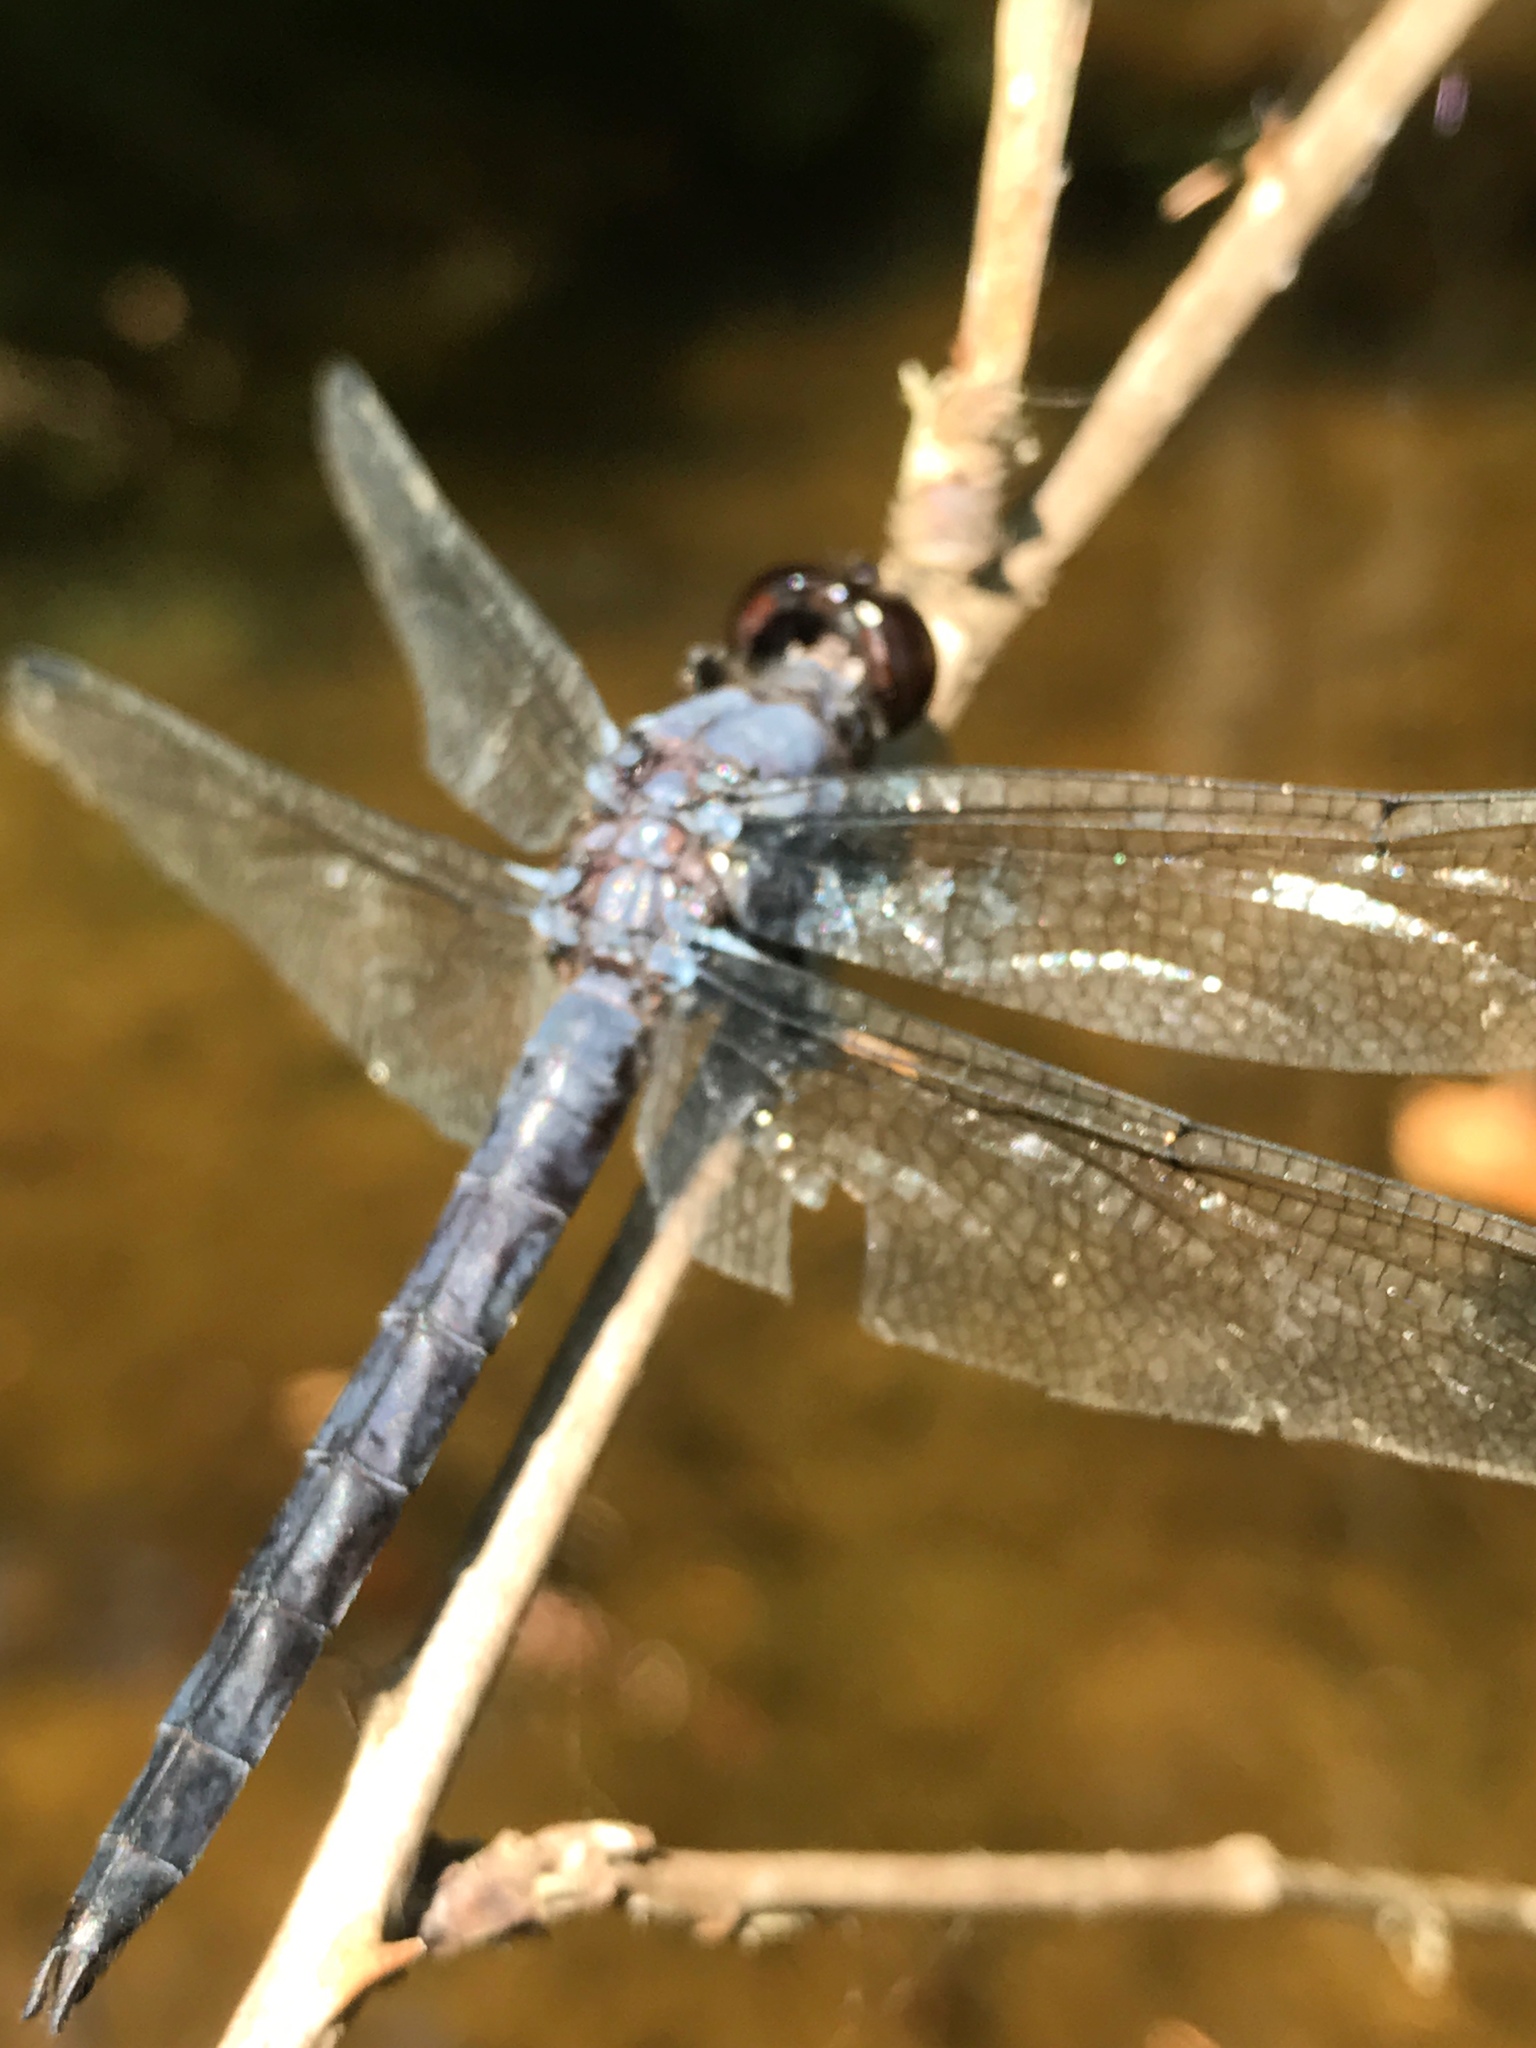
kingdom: Animalia
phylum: Arthropoda
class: Insecta
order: Odonata
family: Libellulidae
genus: Libellula
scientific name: Libellula incesta
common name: Slaty skimmer
